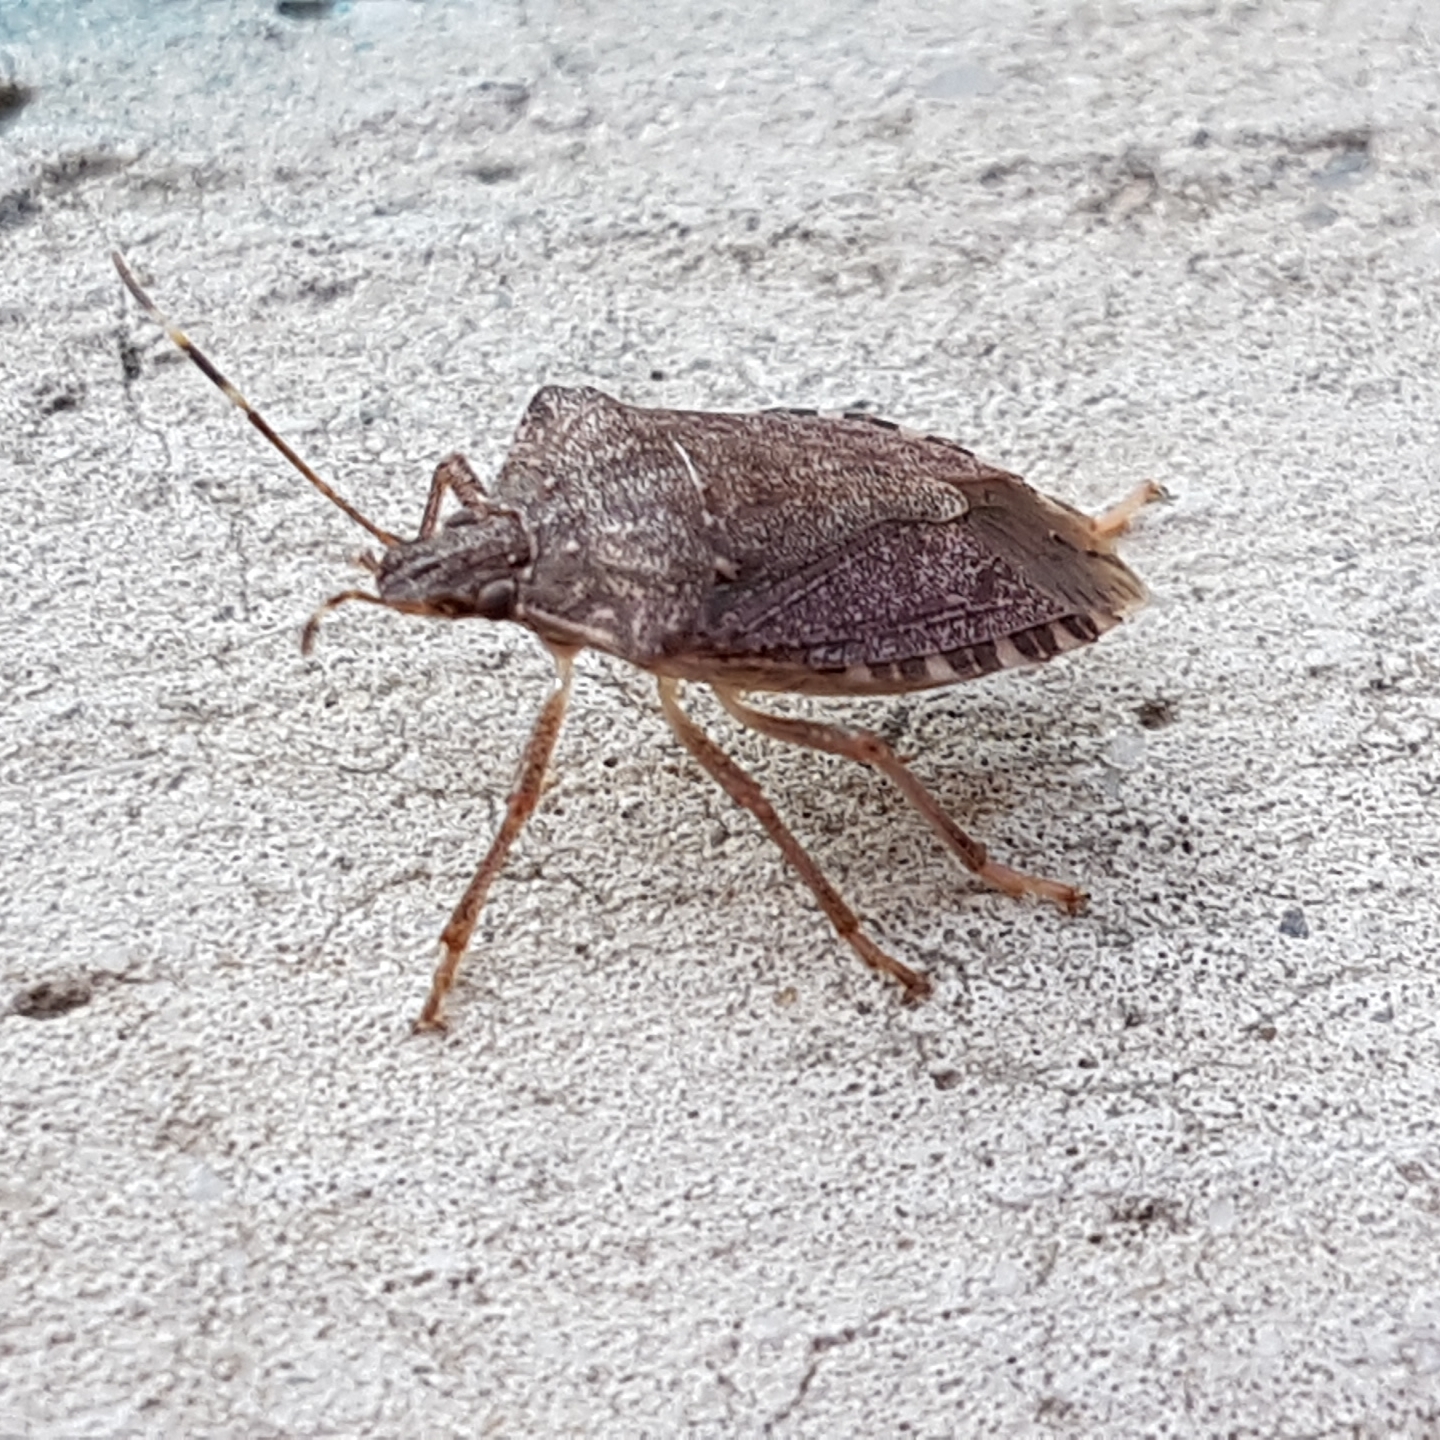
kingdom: Animalia
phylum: Arthropoda
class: Insecta
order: Hemiptera
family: Pentatomidae
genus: Halyomorpha
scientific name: Halyomorpha halys
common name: Brown marmorated stink bug
